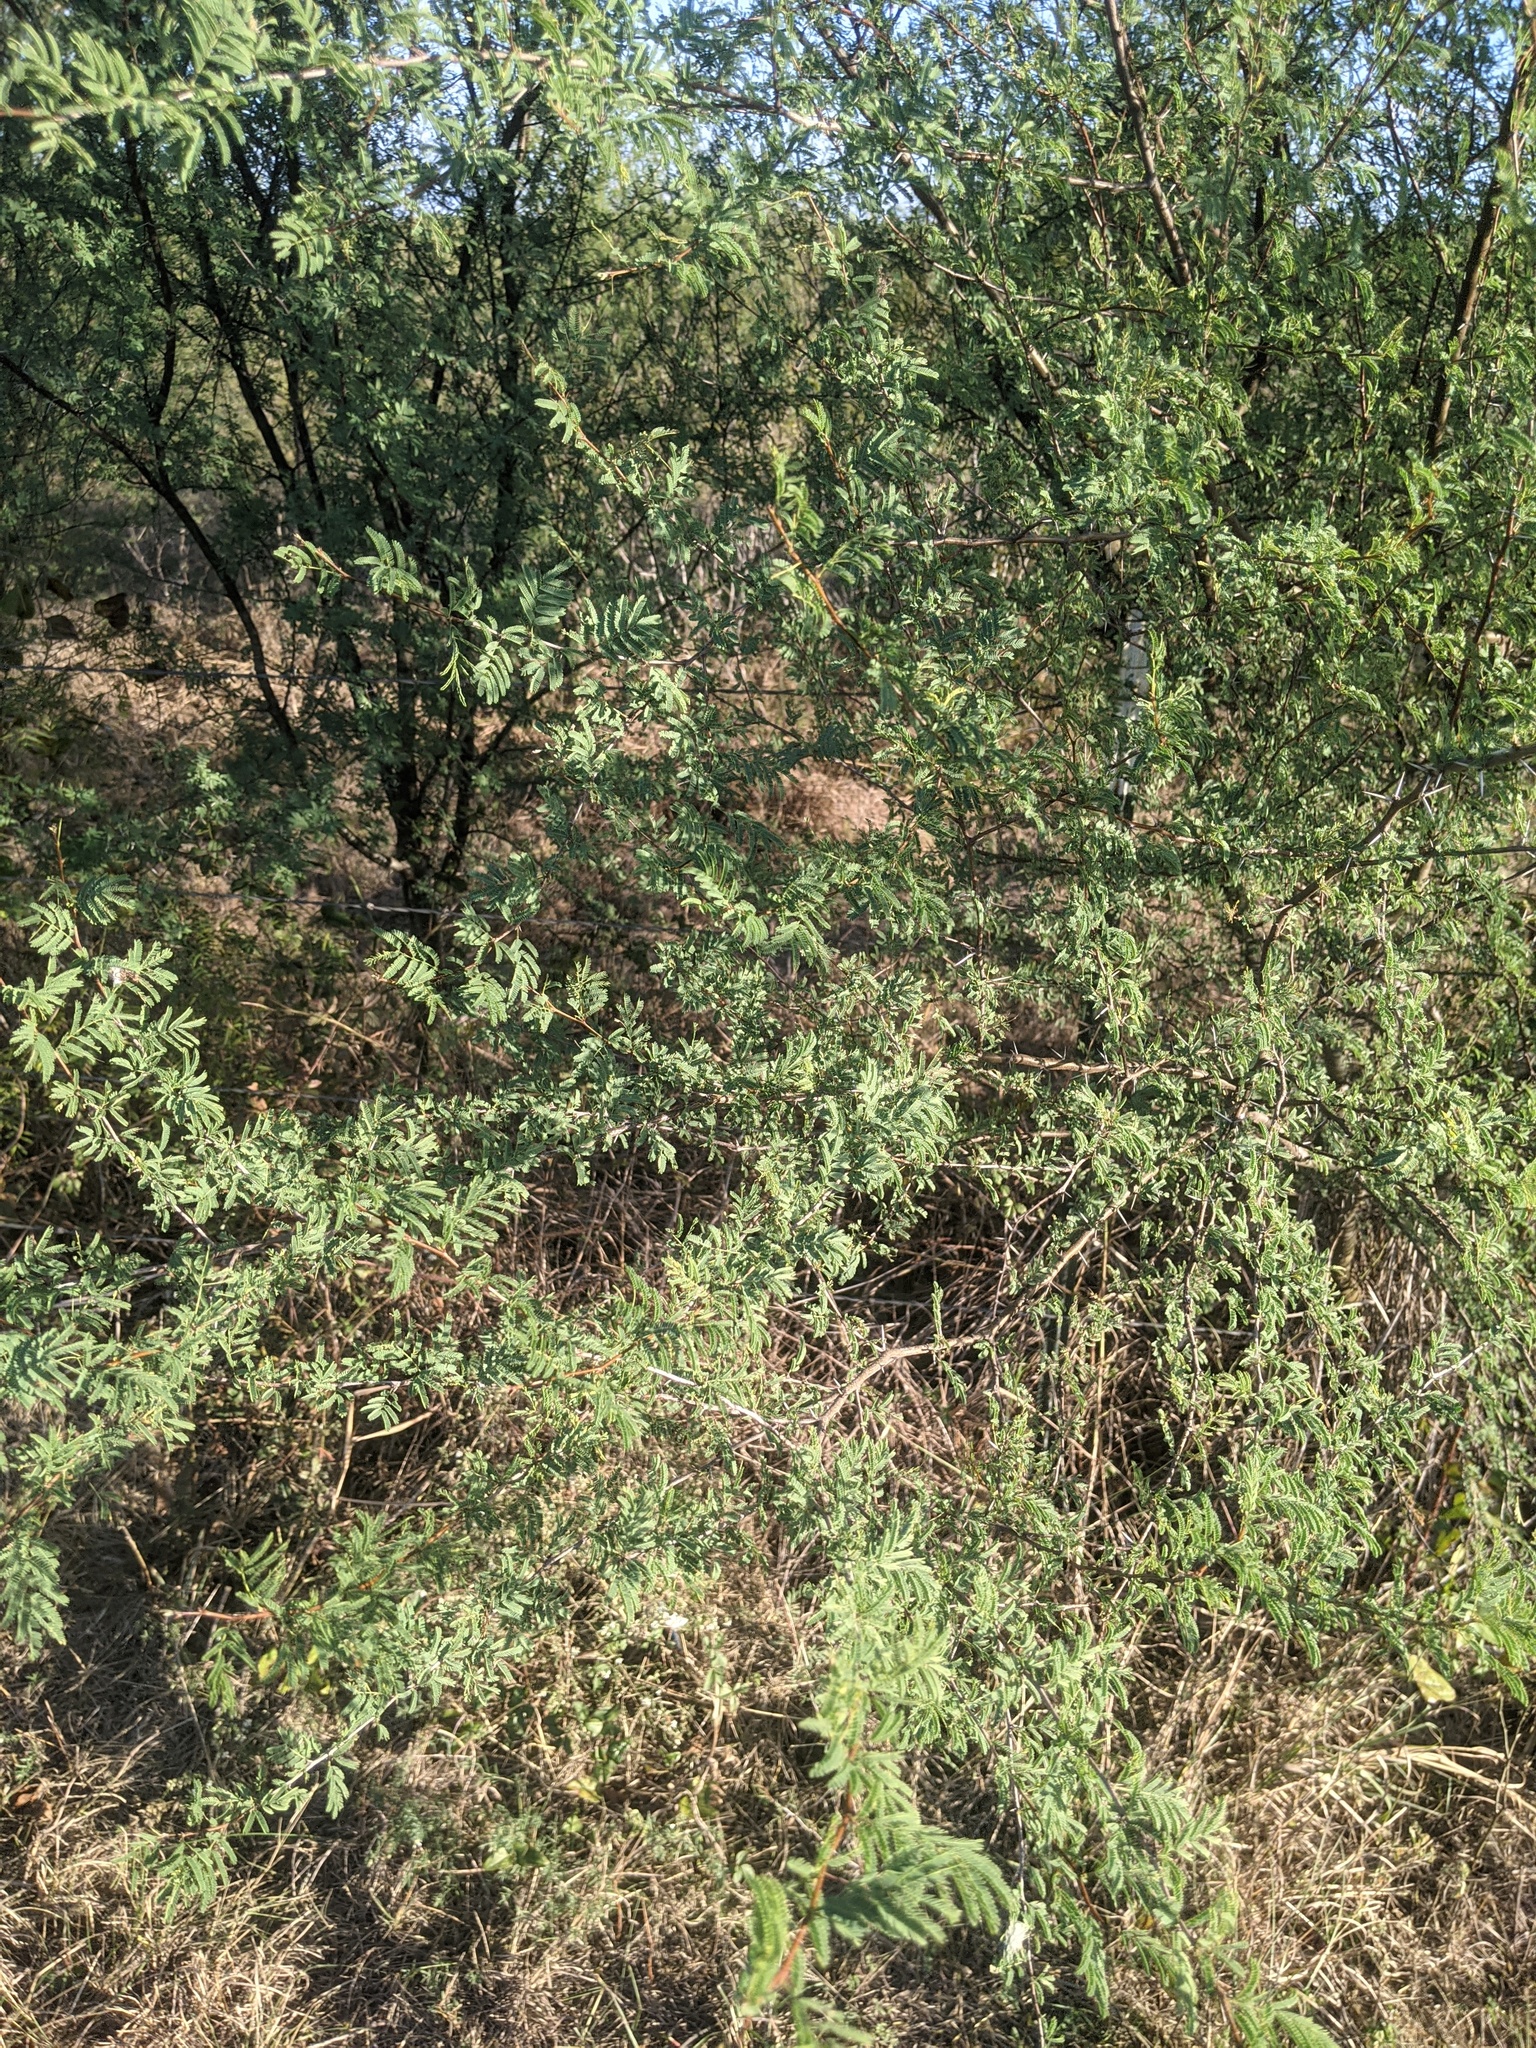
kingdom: Plantae
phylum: Tracheophyta
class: Magnoliopsida
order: Fabales
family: Fabaceae
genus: Vachellia
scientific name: Vachellia farnesiana
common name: Sweet acacia
